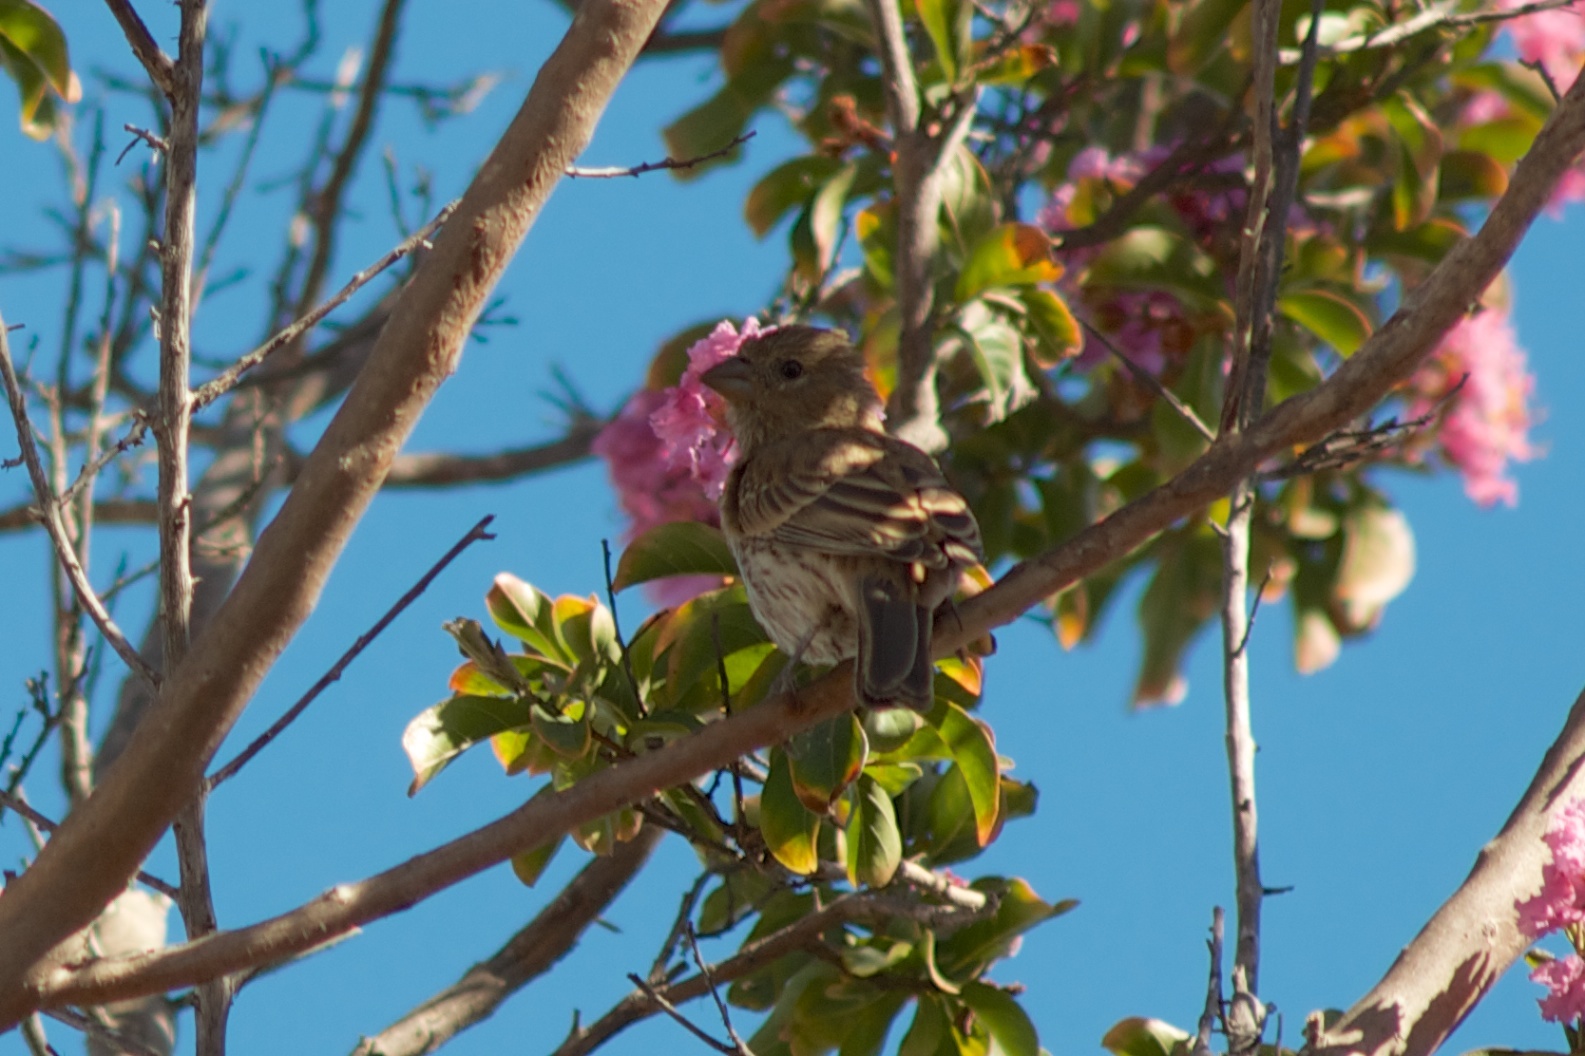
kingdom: Animalia
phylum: Chordata
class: Aves
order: Passeriformes
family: Fringillidae
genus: Haemorhous
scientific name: Haemorhous mexicanus
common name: House finch
